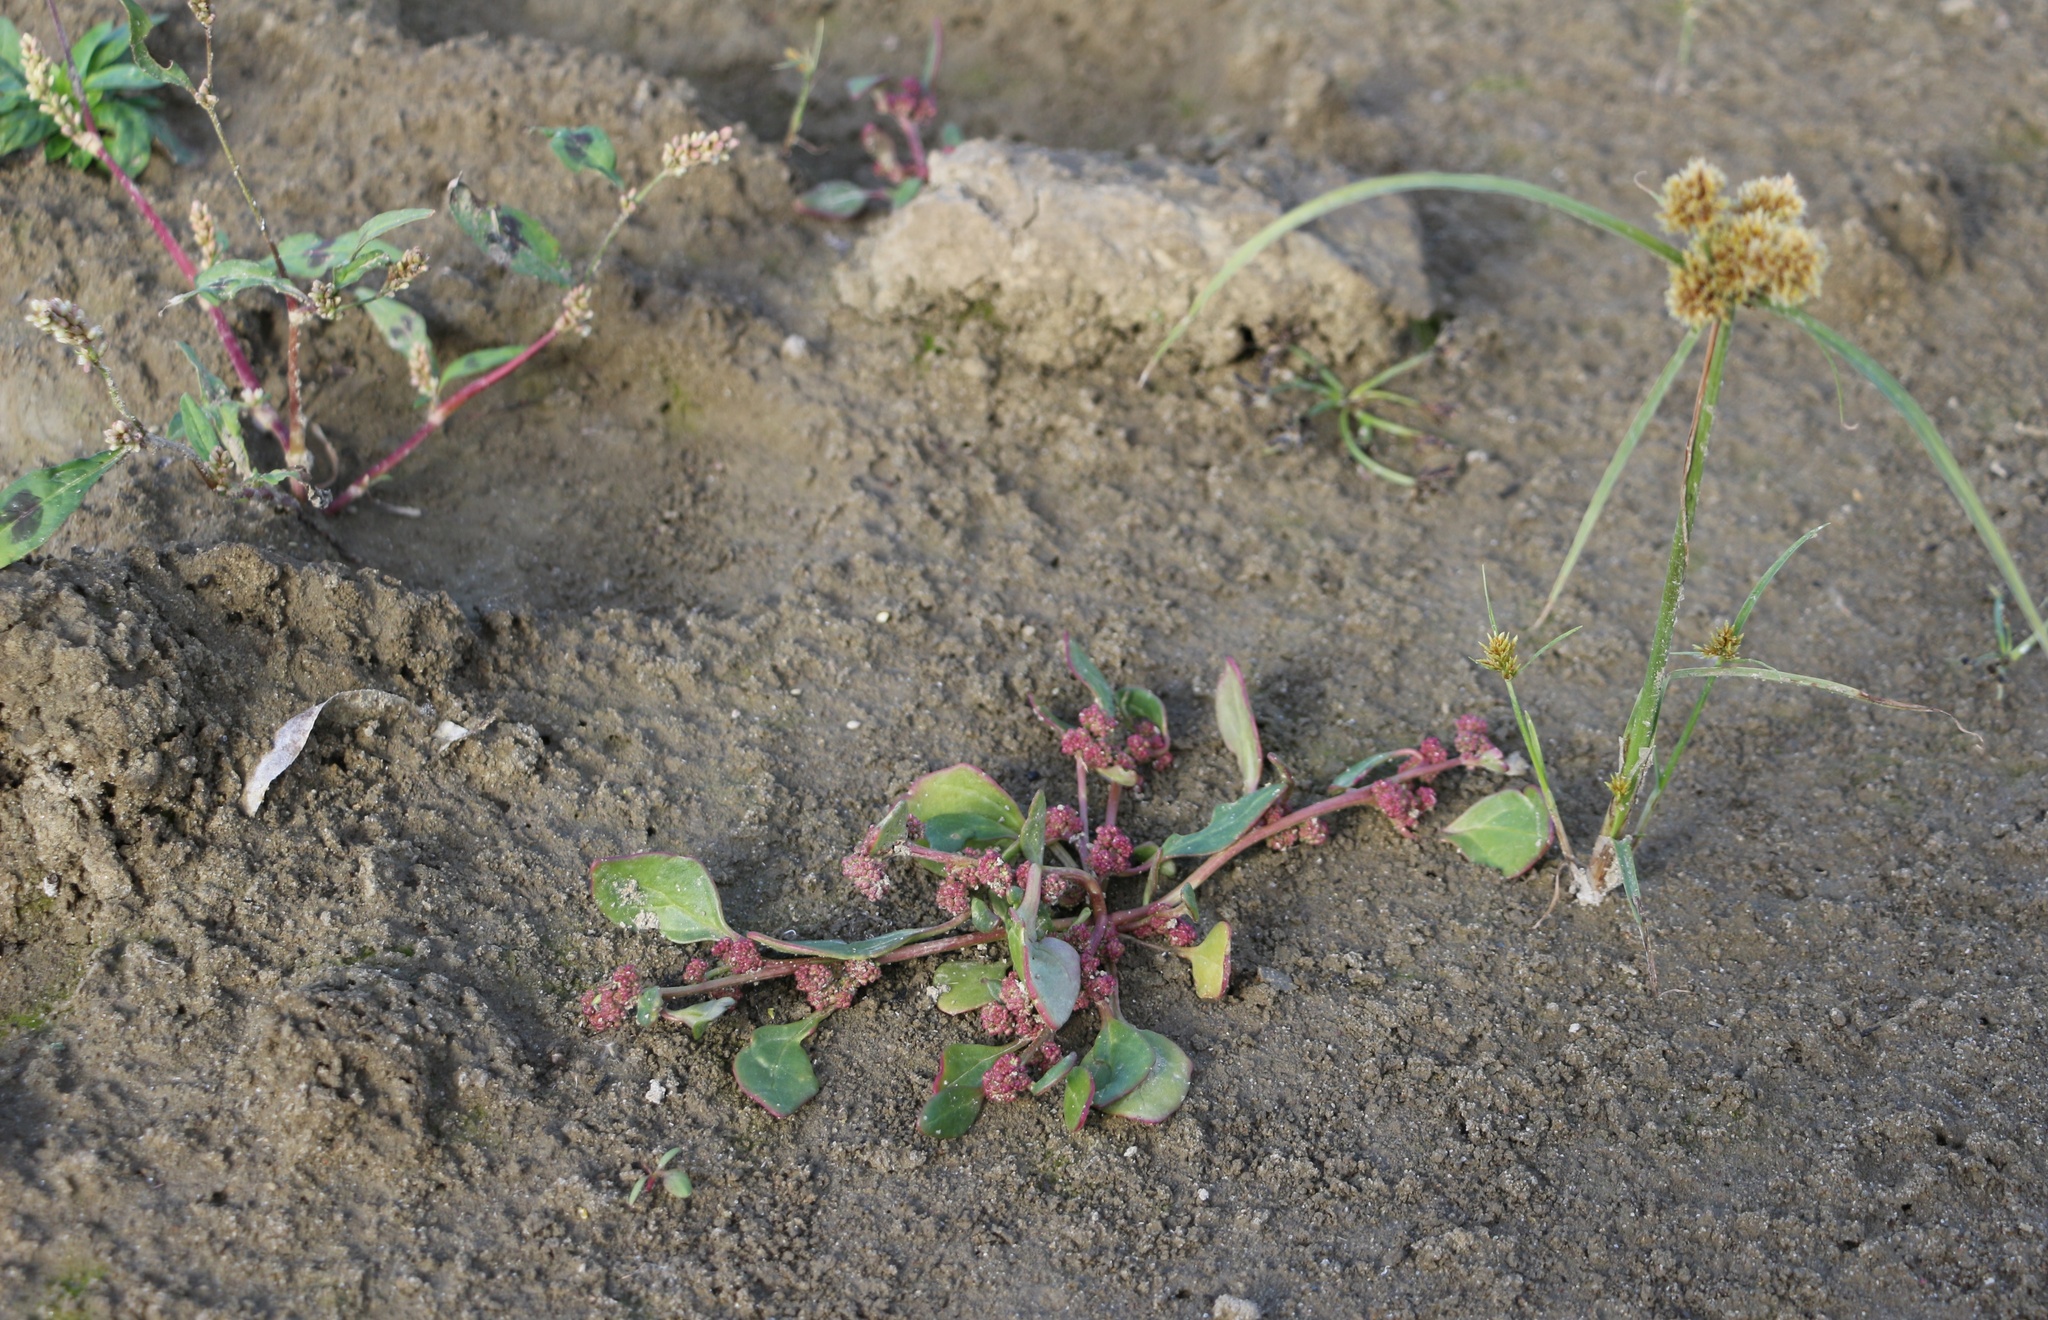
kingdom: Plantae
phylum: Tracheophyta
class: Magnoliopsida
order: Caryophyllales
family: Amaranthaceae
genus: Oxybasis
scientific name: Oxybasis rubra
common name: Red goosefoot
